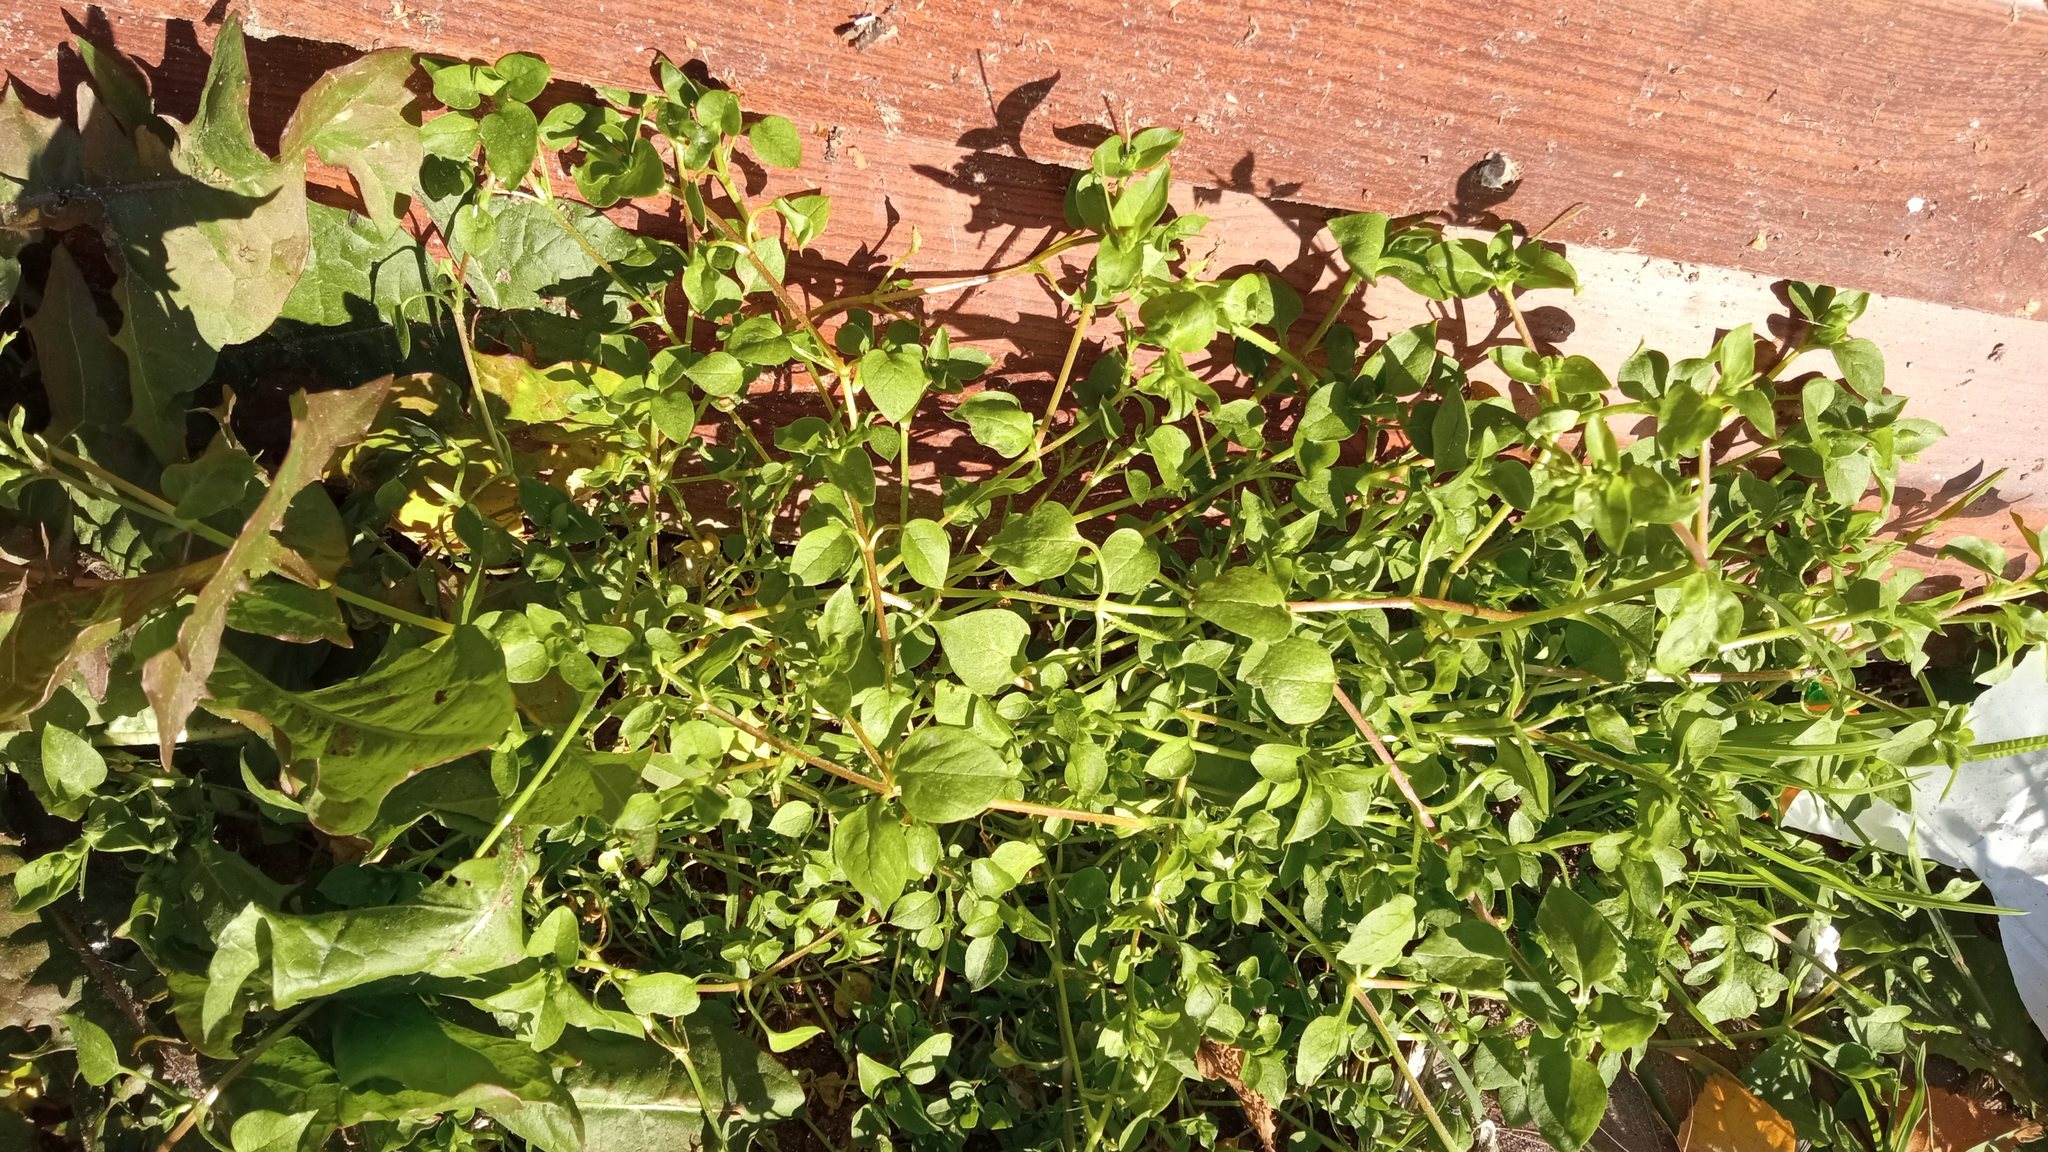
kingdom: Plantae
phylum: Tracheophyta
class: Magnoliopsida
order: Caryophyllales
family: Caryophyllaceae
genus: Stellaria
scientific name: Stellaria media
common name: Common chickweed
